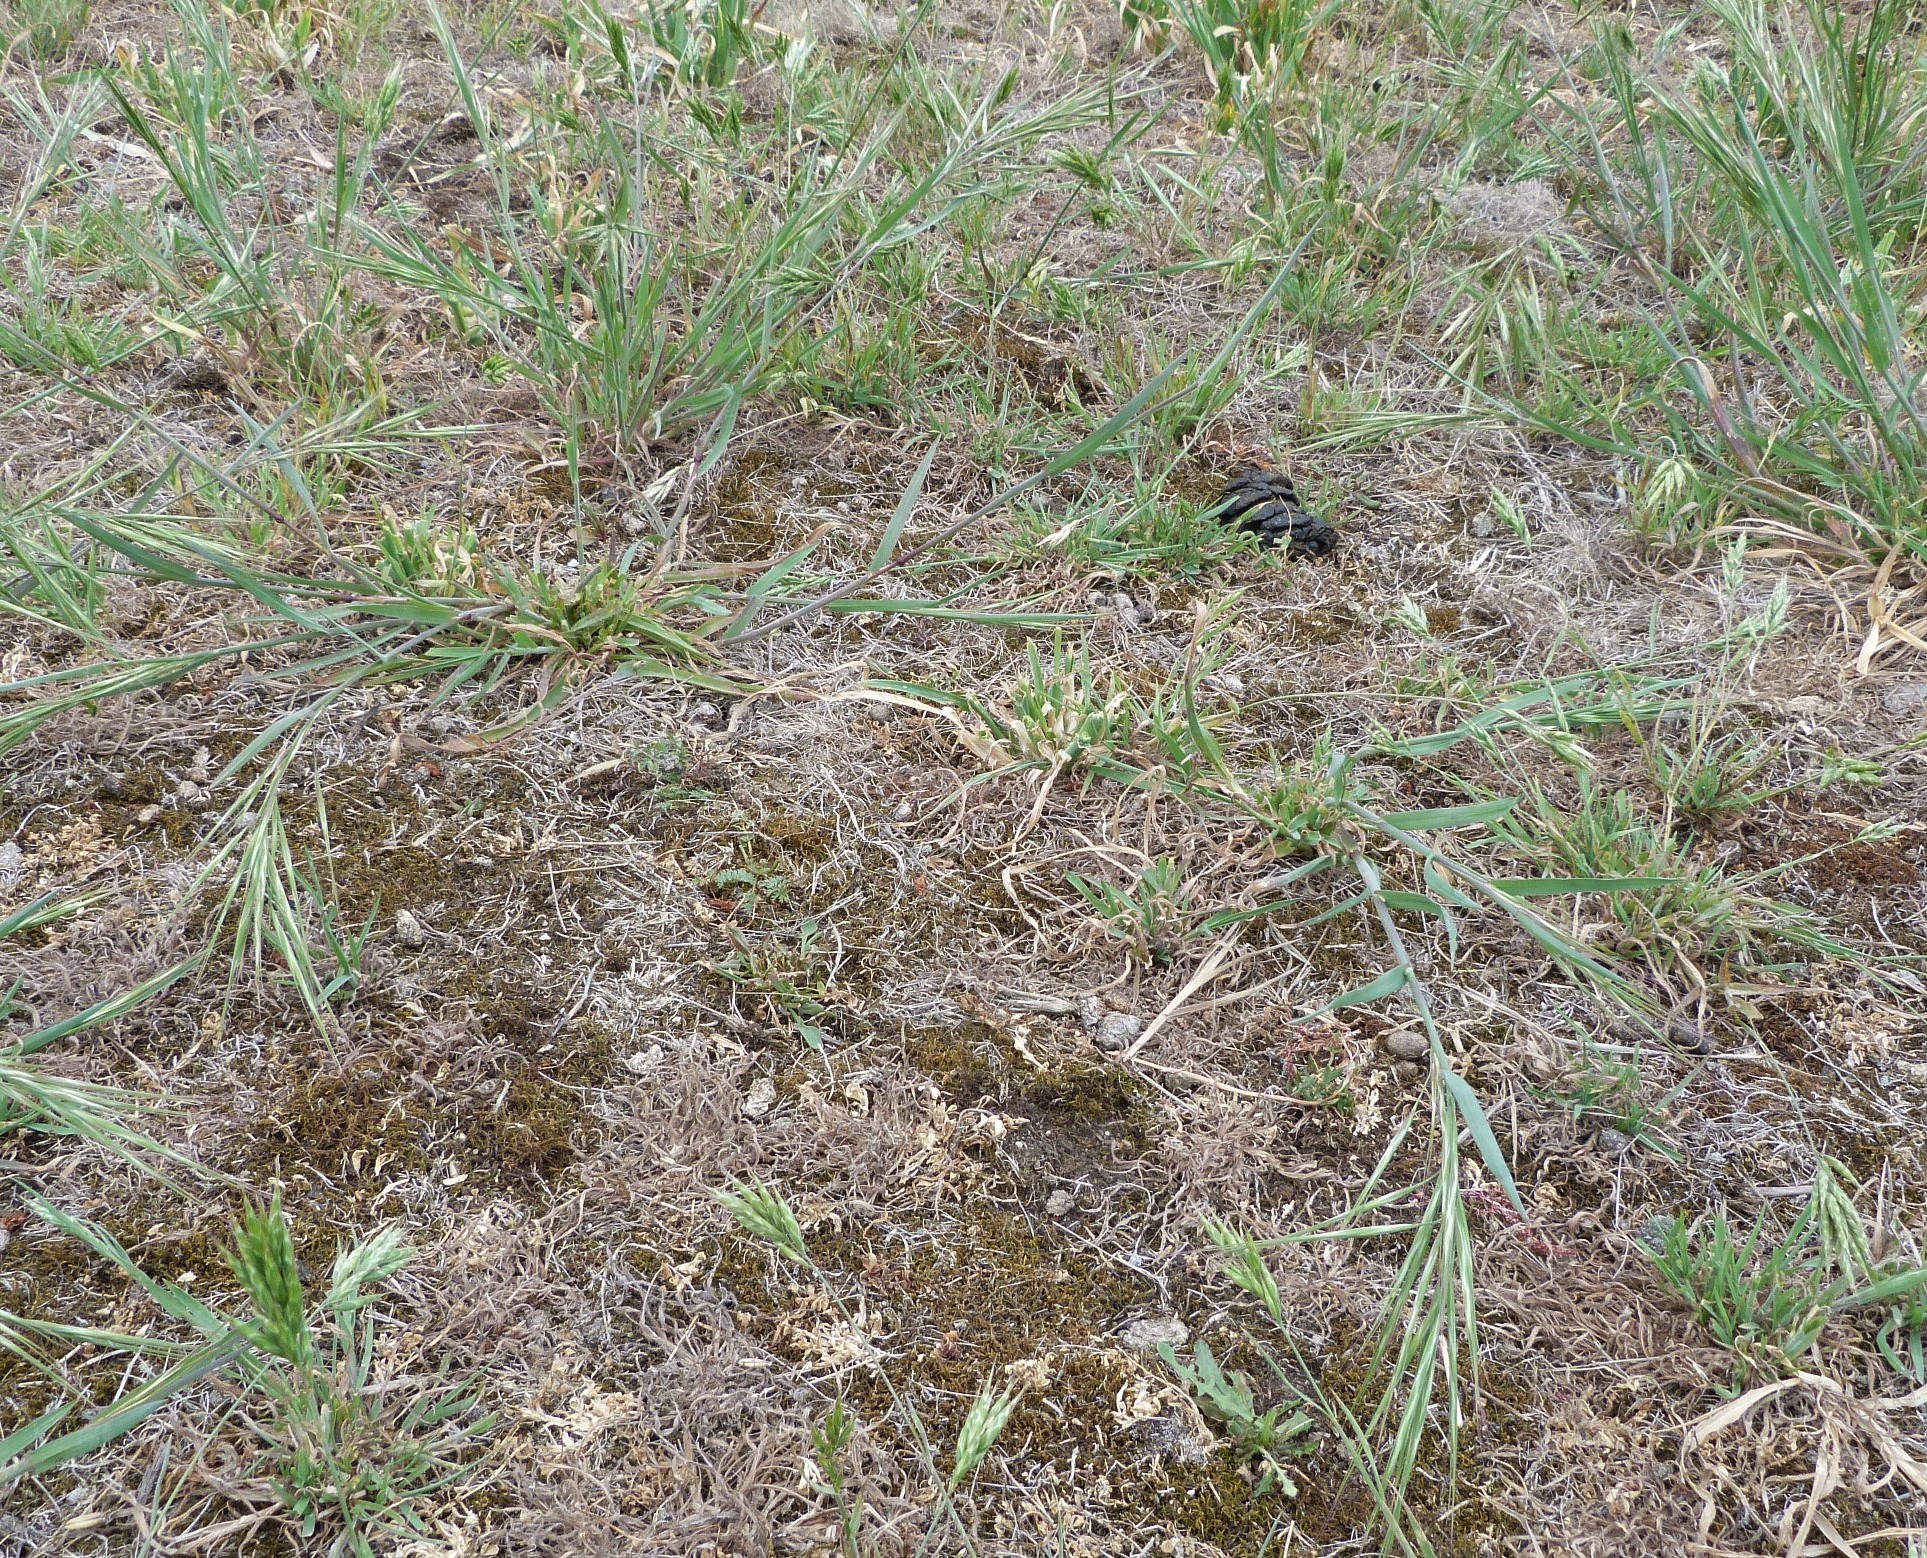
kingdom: Plantae
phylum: Tracheophyta
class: Liliopsida
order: Poales
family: Poaceae
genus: Avena
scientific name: Avena sativa
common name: Oat
